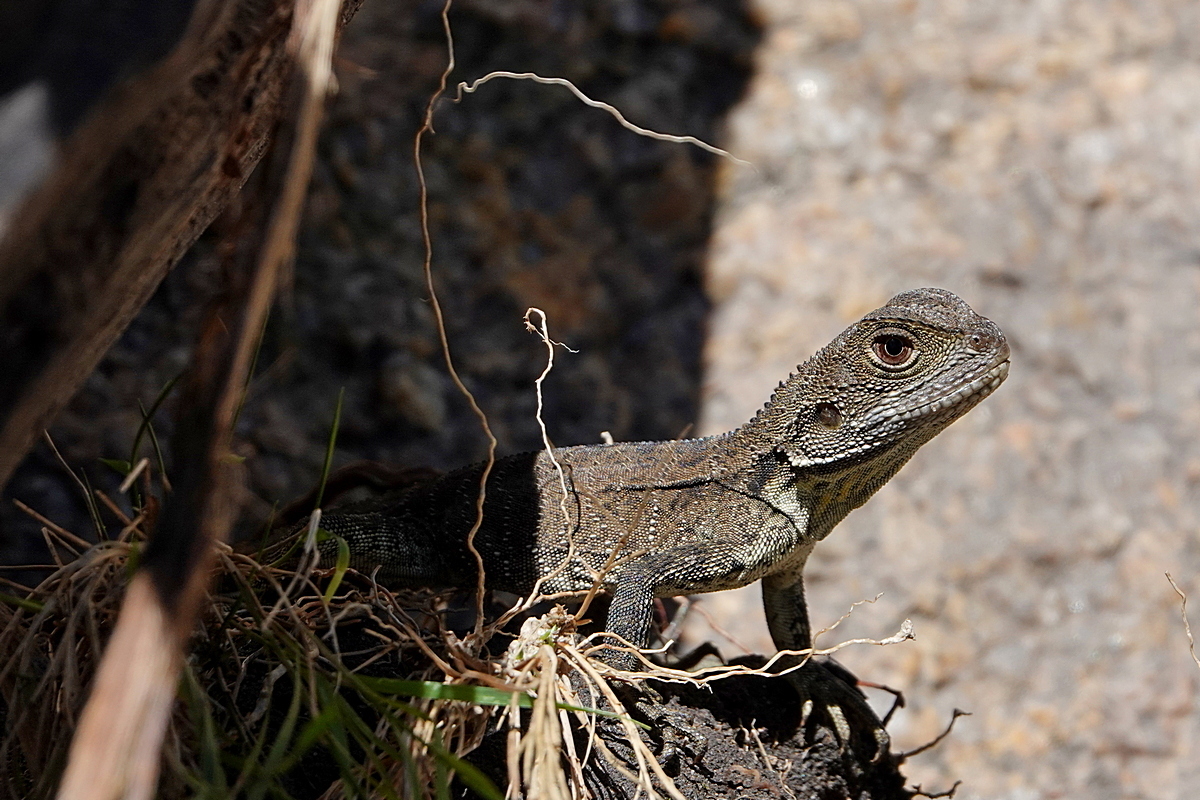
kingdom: Animalia
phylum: Chordata
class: Squamata
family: Agamidae
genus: Intellagama
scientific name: Intellagama lesueurii
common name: Eastern water dragon
